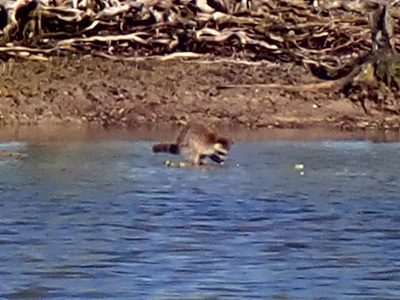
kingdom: Animalia
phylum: Chordata
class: Mammalia
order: Carnivora
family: Procyonidae
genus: Procyon
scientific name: Procyon lotor
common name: Raccoon
